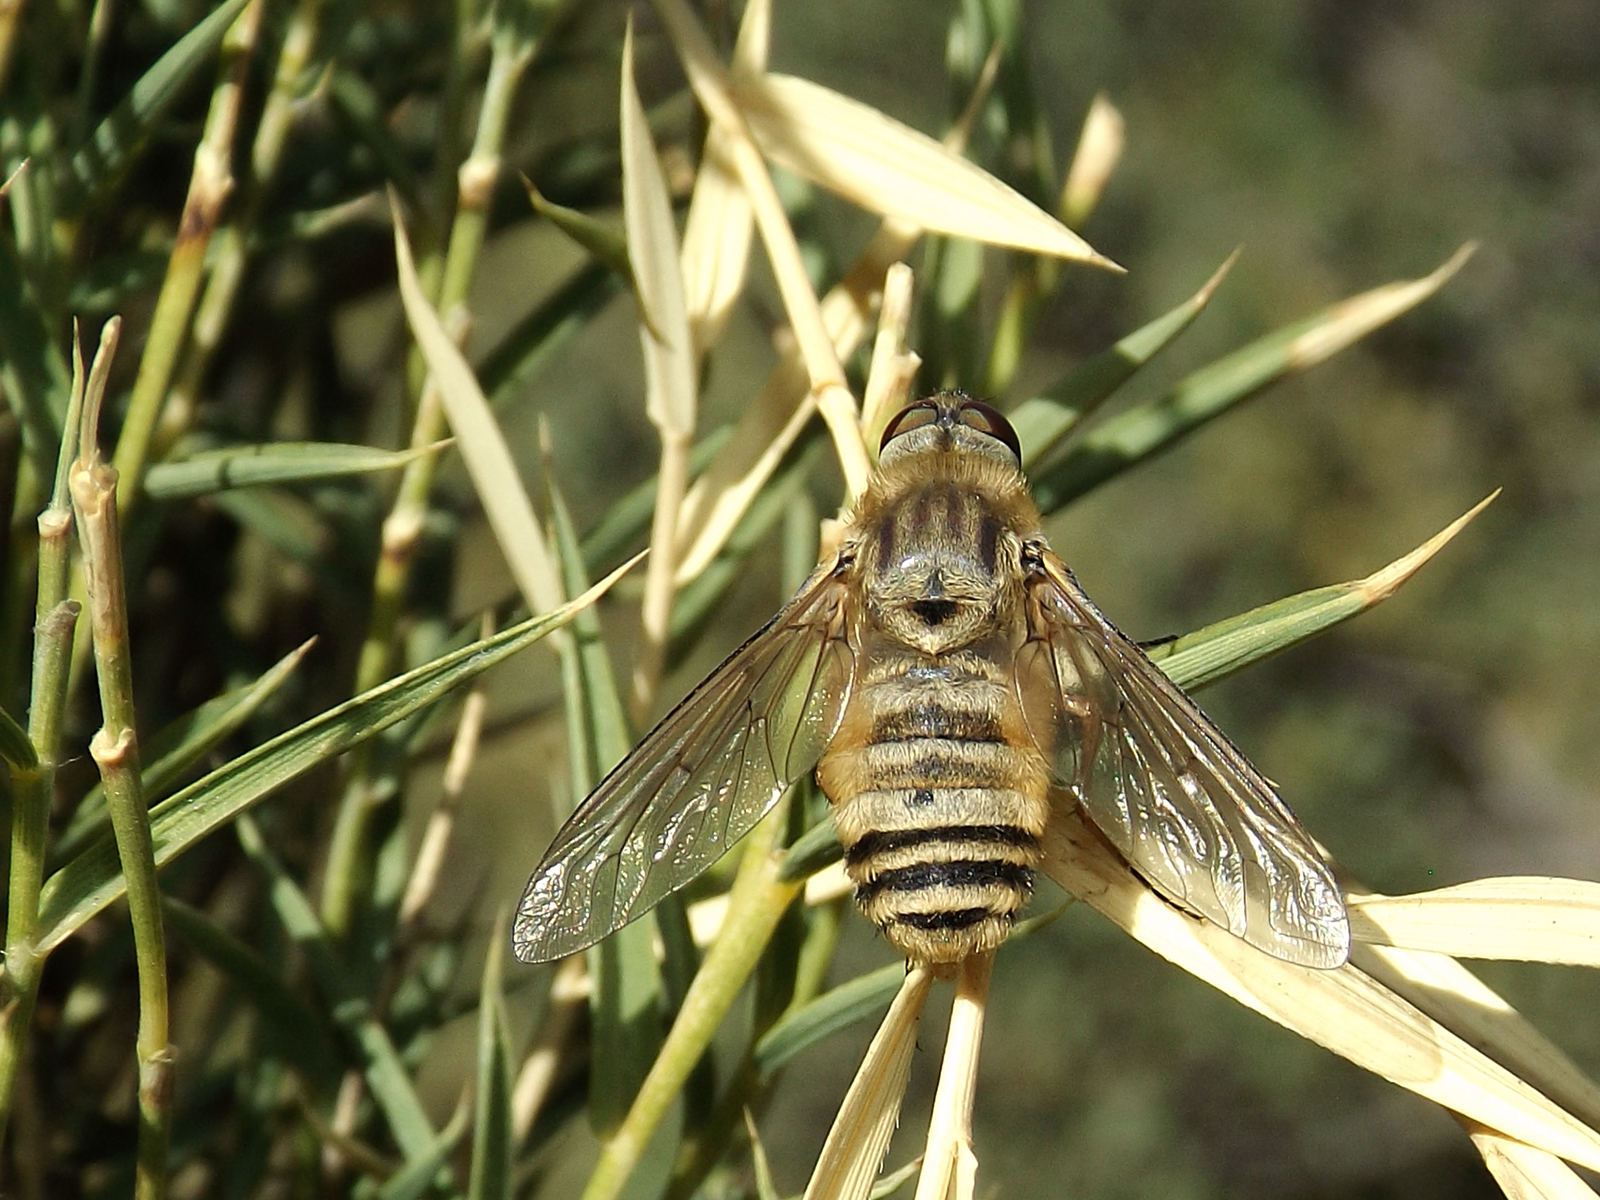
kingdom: Animalia
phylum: Arthropoda
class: Insecta
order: Diptera
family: Bombyliidae
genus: Chrysanthrax
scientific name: Chrysanthrax multicolor
